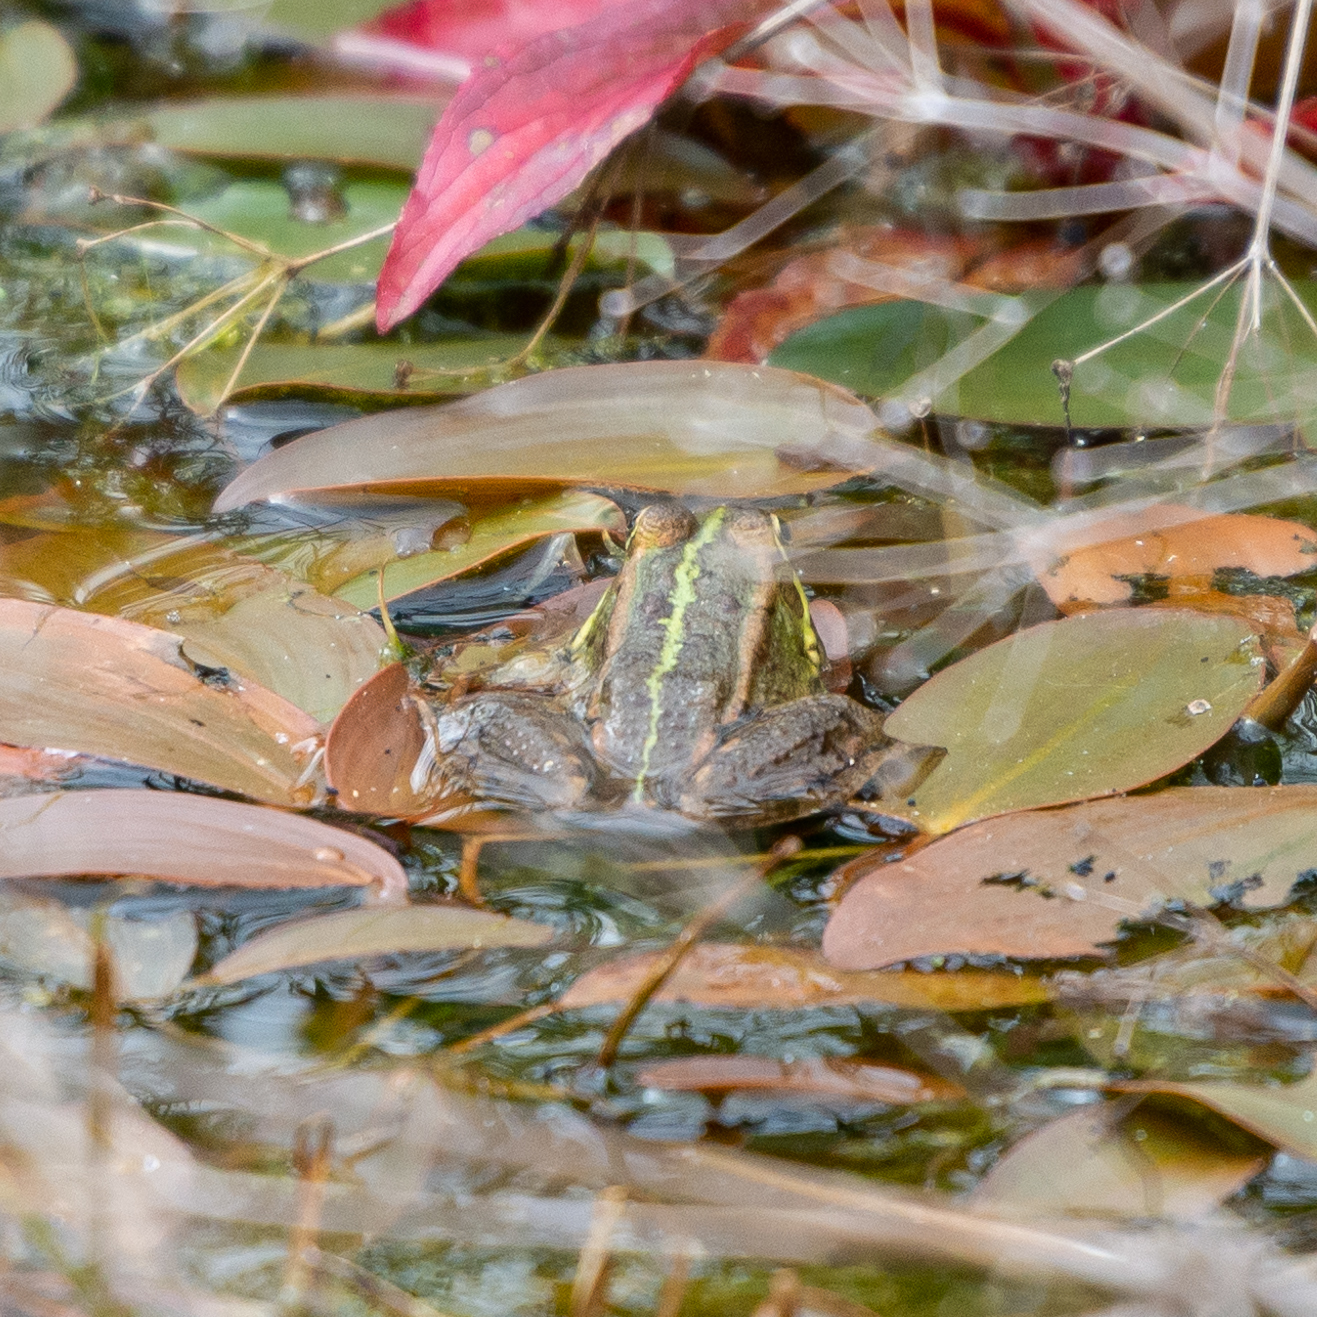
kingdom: Animalia
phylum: Chordata
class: Amphibia
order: Anura
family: Ranidae
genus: Pelophylax
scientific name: Pelophylax perezi
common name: Perez's frog
